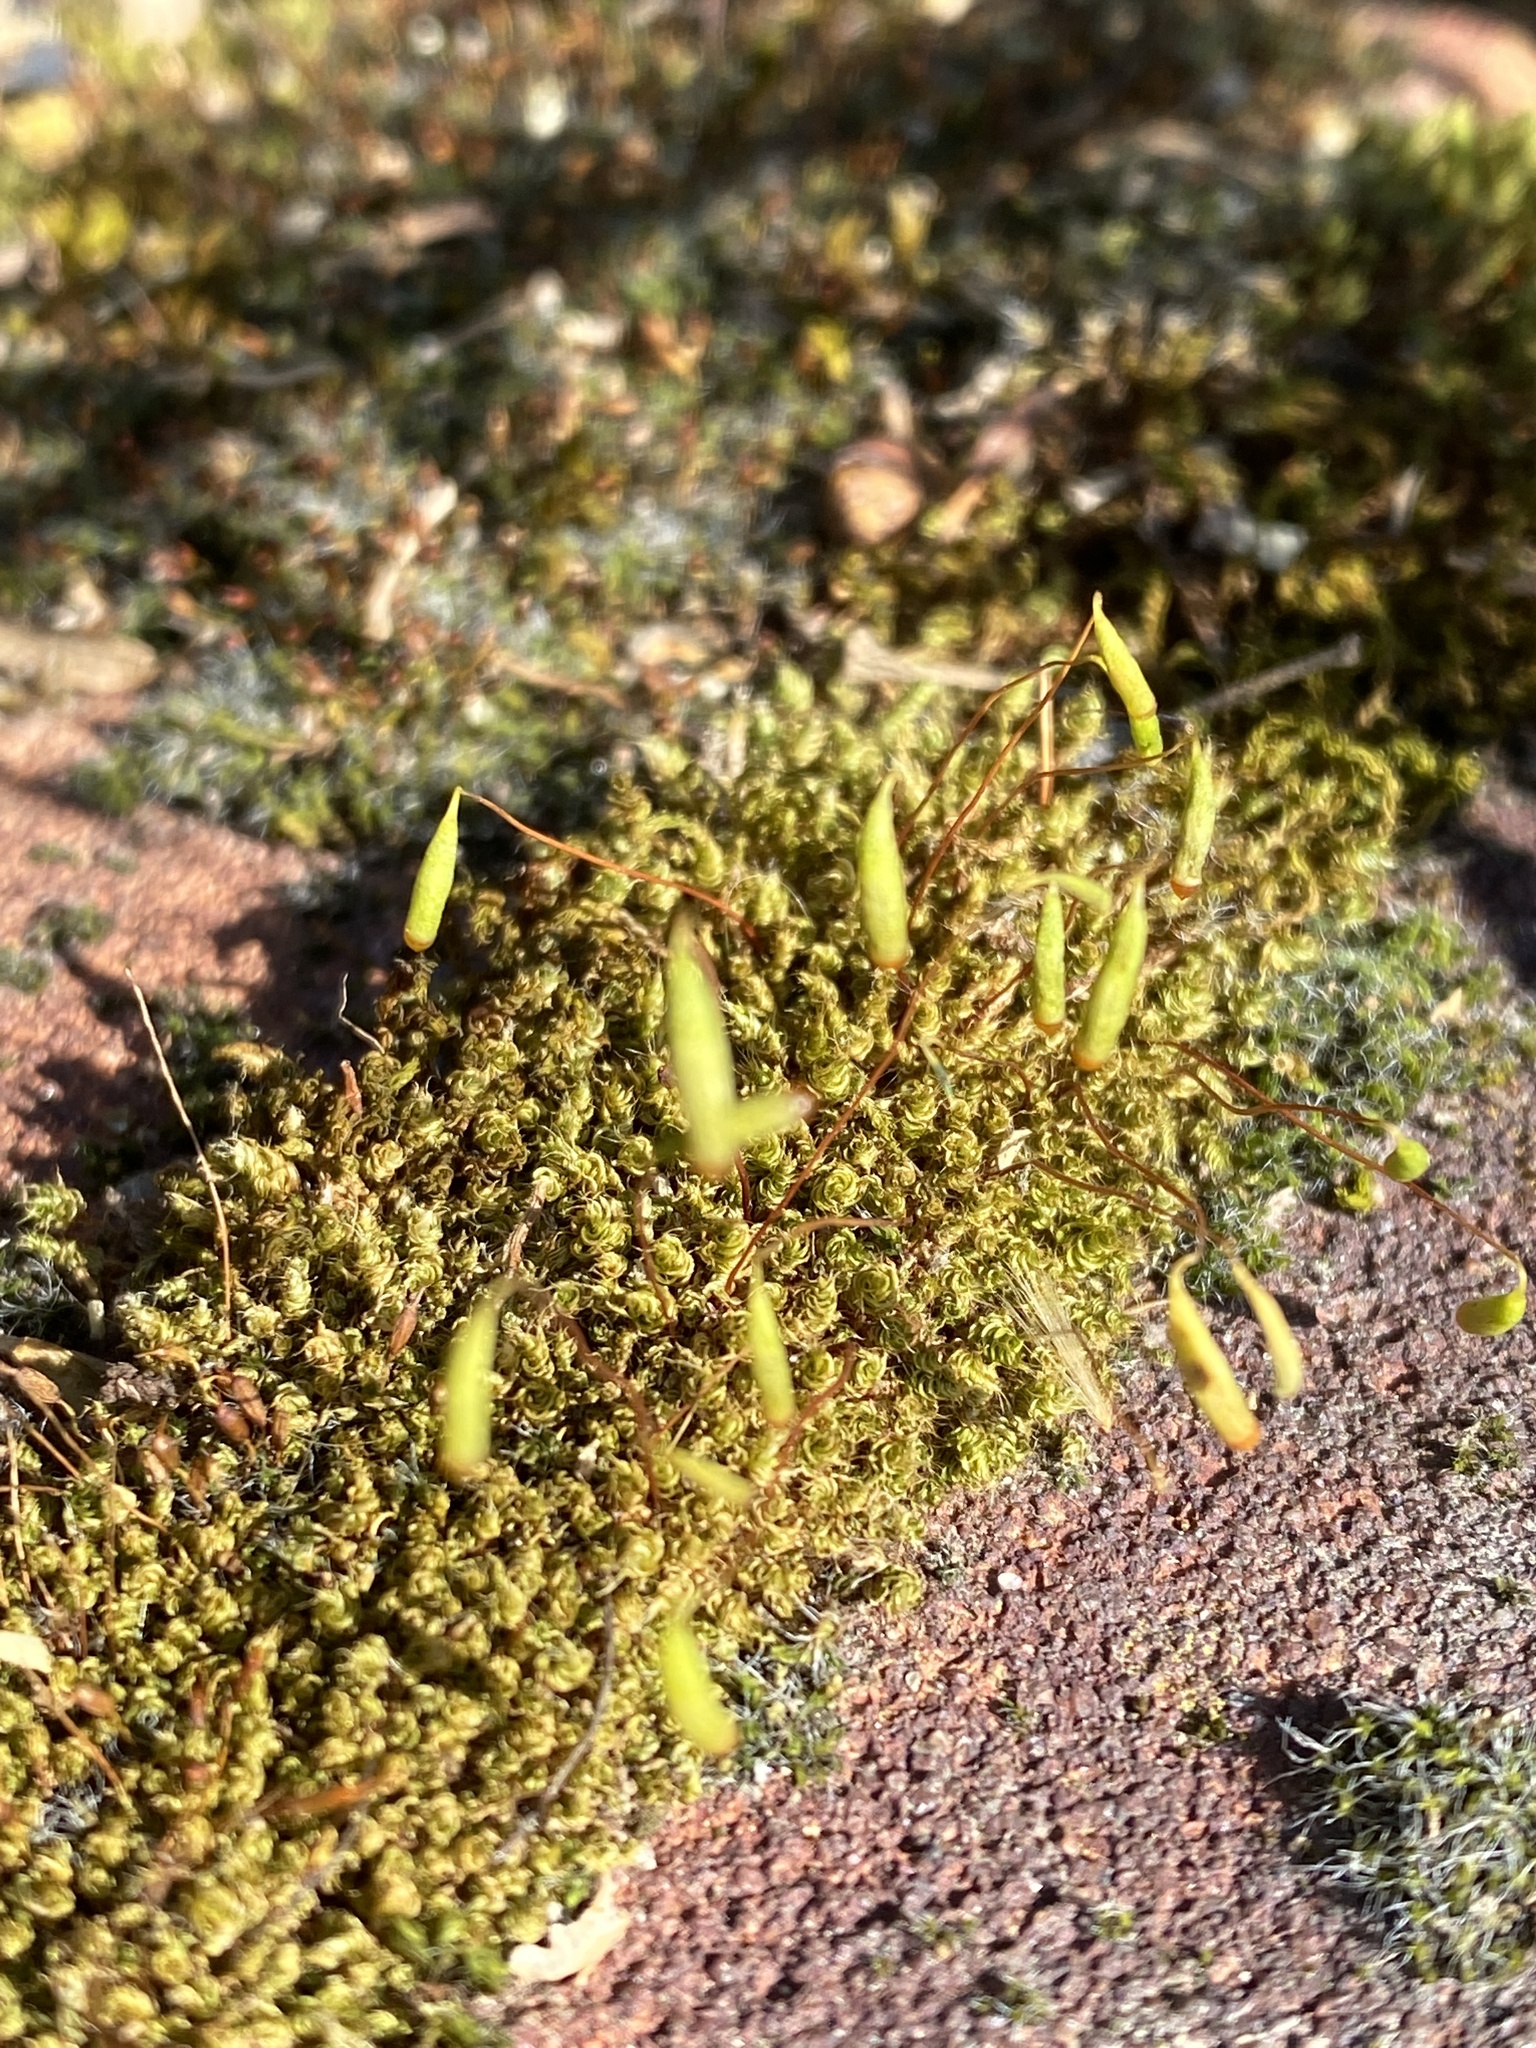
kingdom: Plantae
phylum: Bryophyta
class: Bryopsida
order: Bryales
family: Bryaceae
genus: Rosulabryum
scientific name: Rosulabryum capillare
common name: Capillary thread-moss
